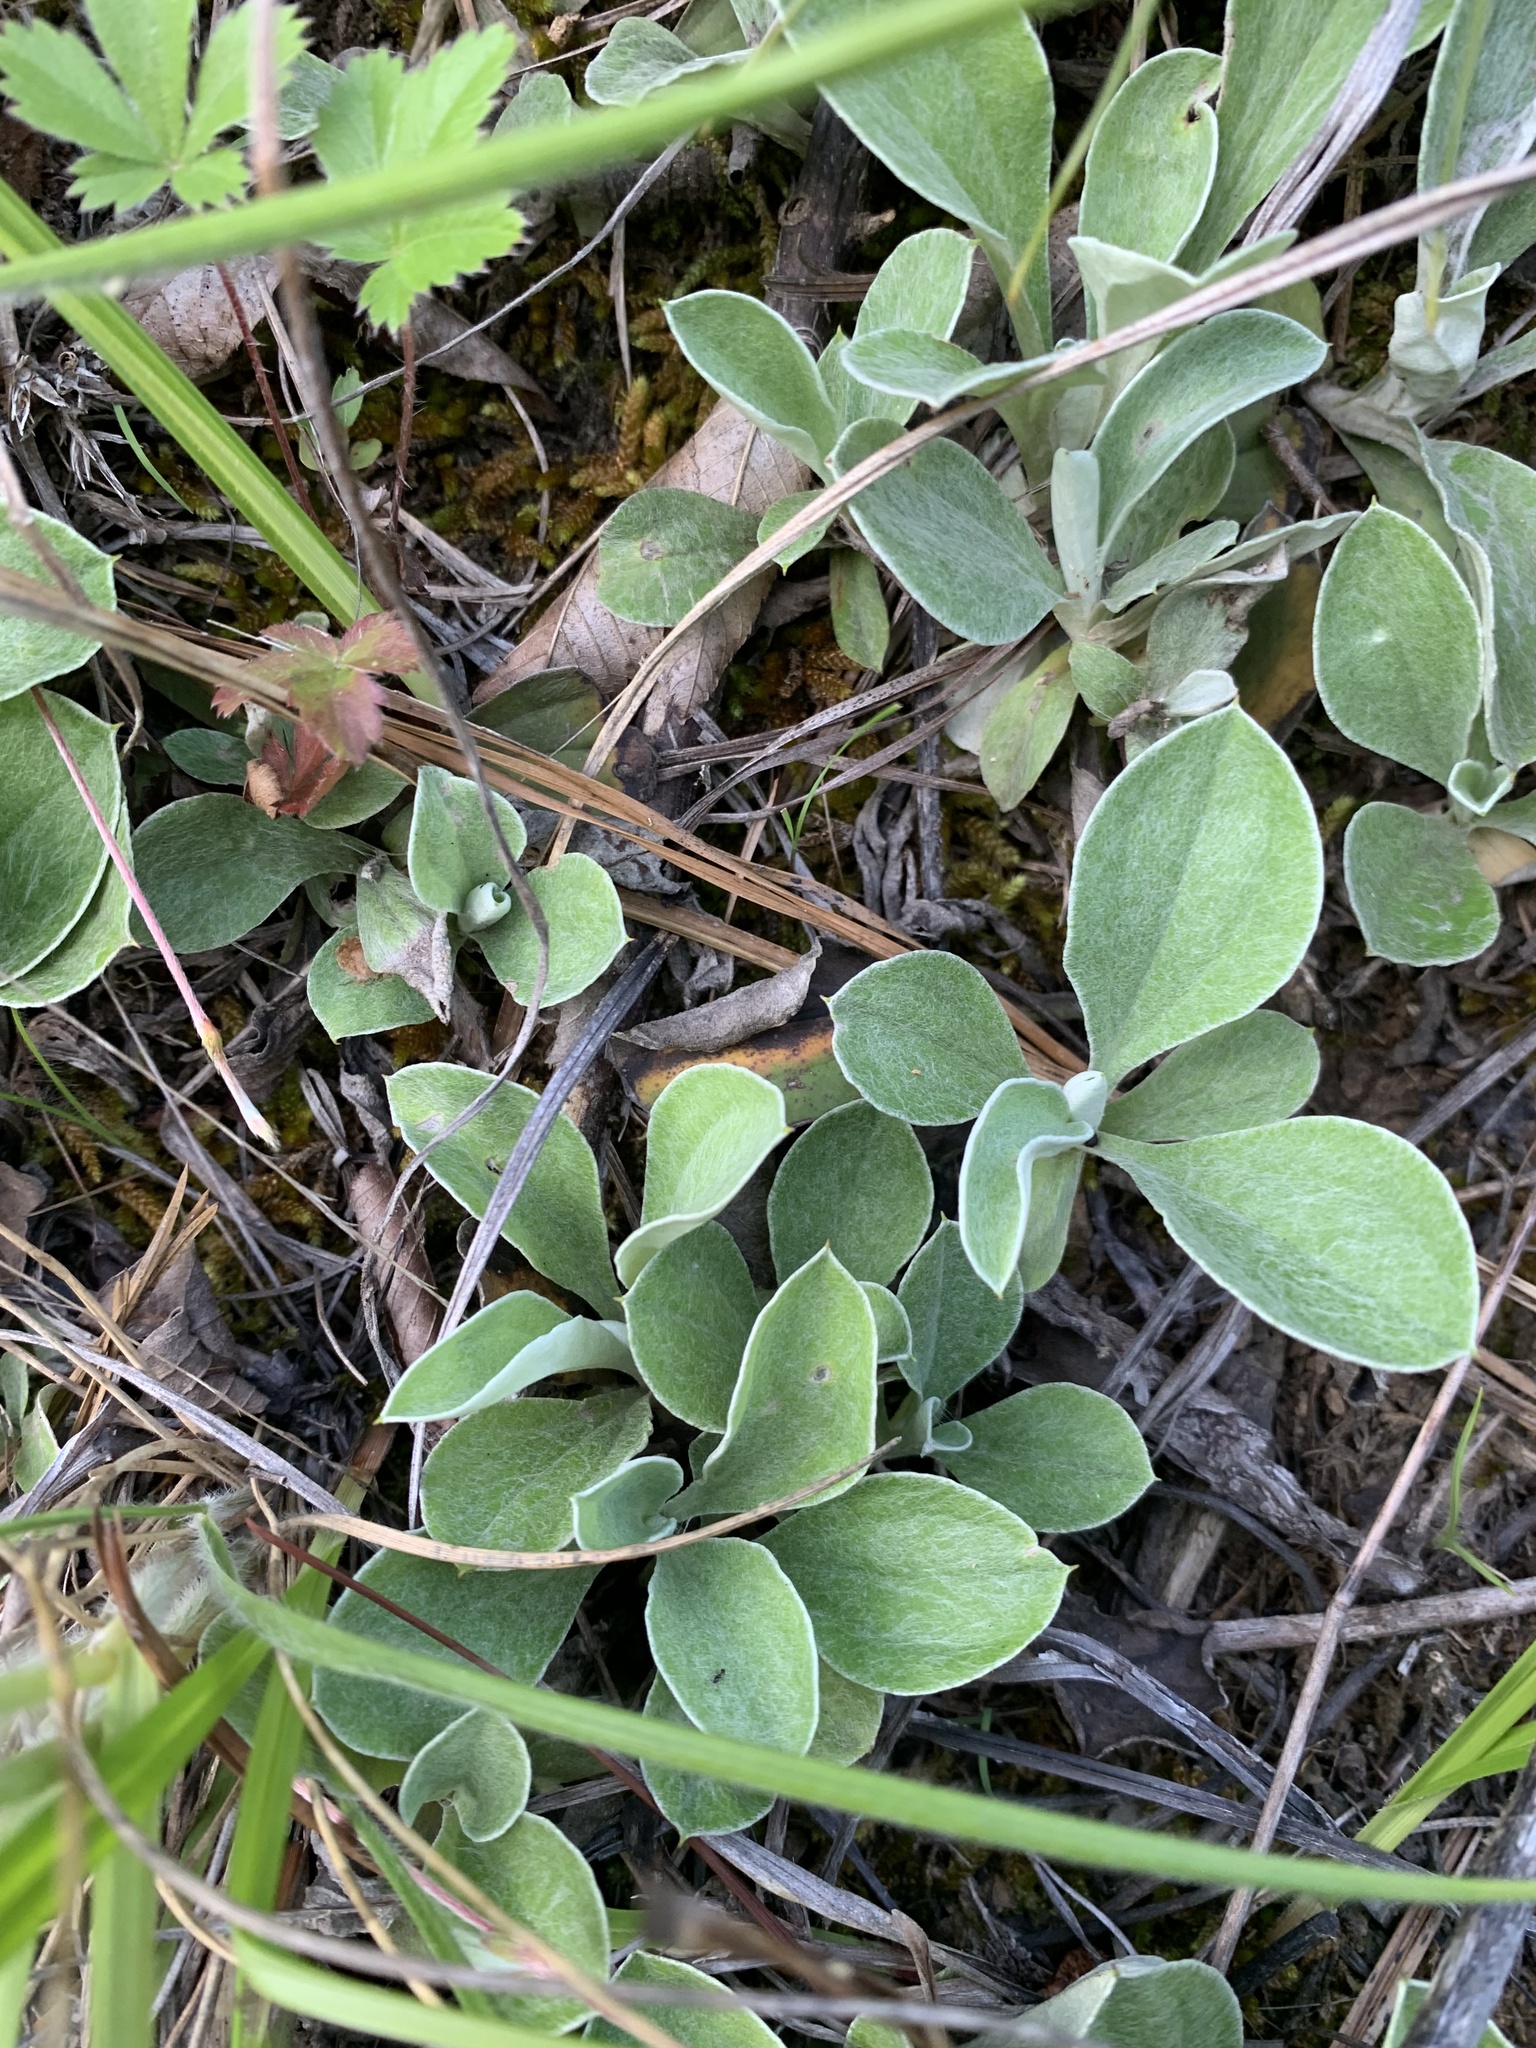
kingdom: Plantae
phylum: Tracheophyta
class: Magnoliopsida
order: Asterales
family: Asteraceae
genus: Antennaria
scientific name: Antennaria parlinii
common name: Parlin's pussytoes
